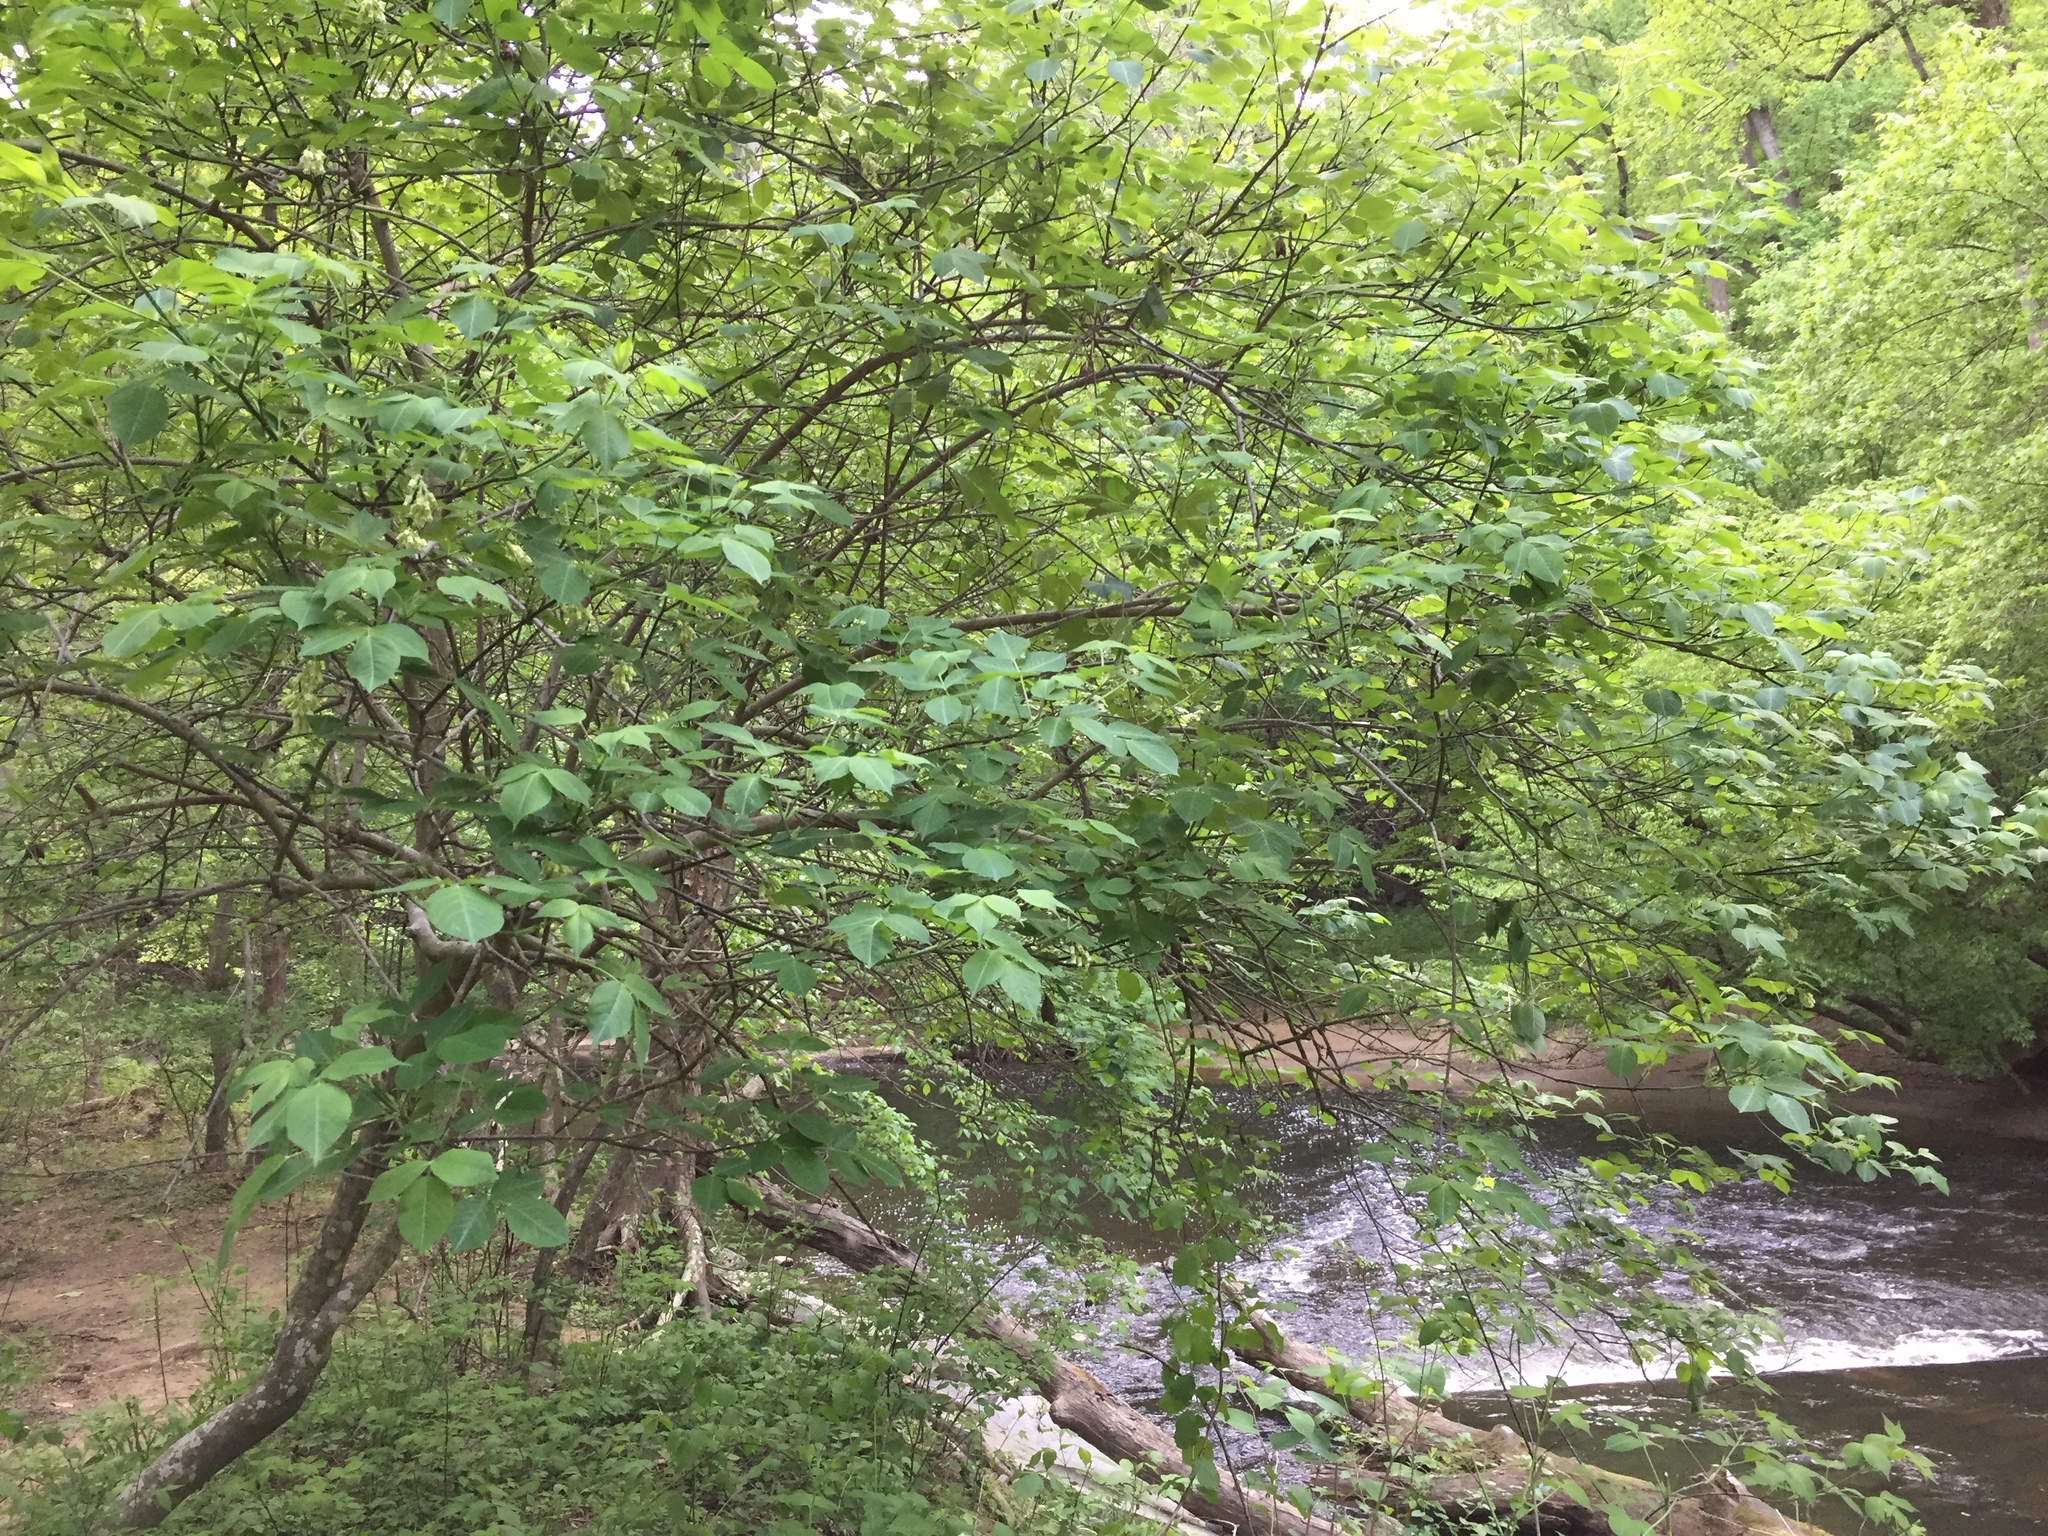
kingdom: Plantae
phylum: Tracheophyta
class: Magnoliopsida
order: Crossosomatales
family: Staphyleaceae
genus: Staphylea
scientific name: Staphylea trifolia
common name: American bladdernut
